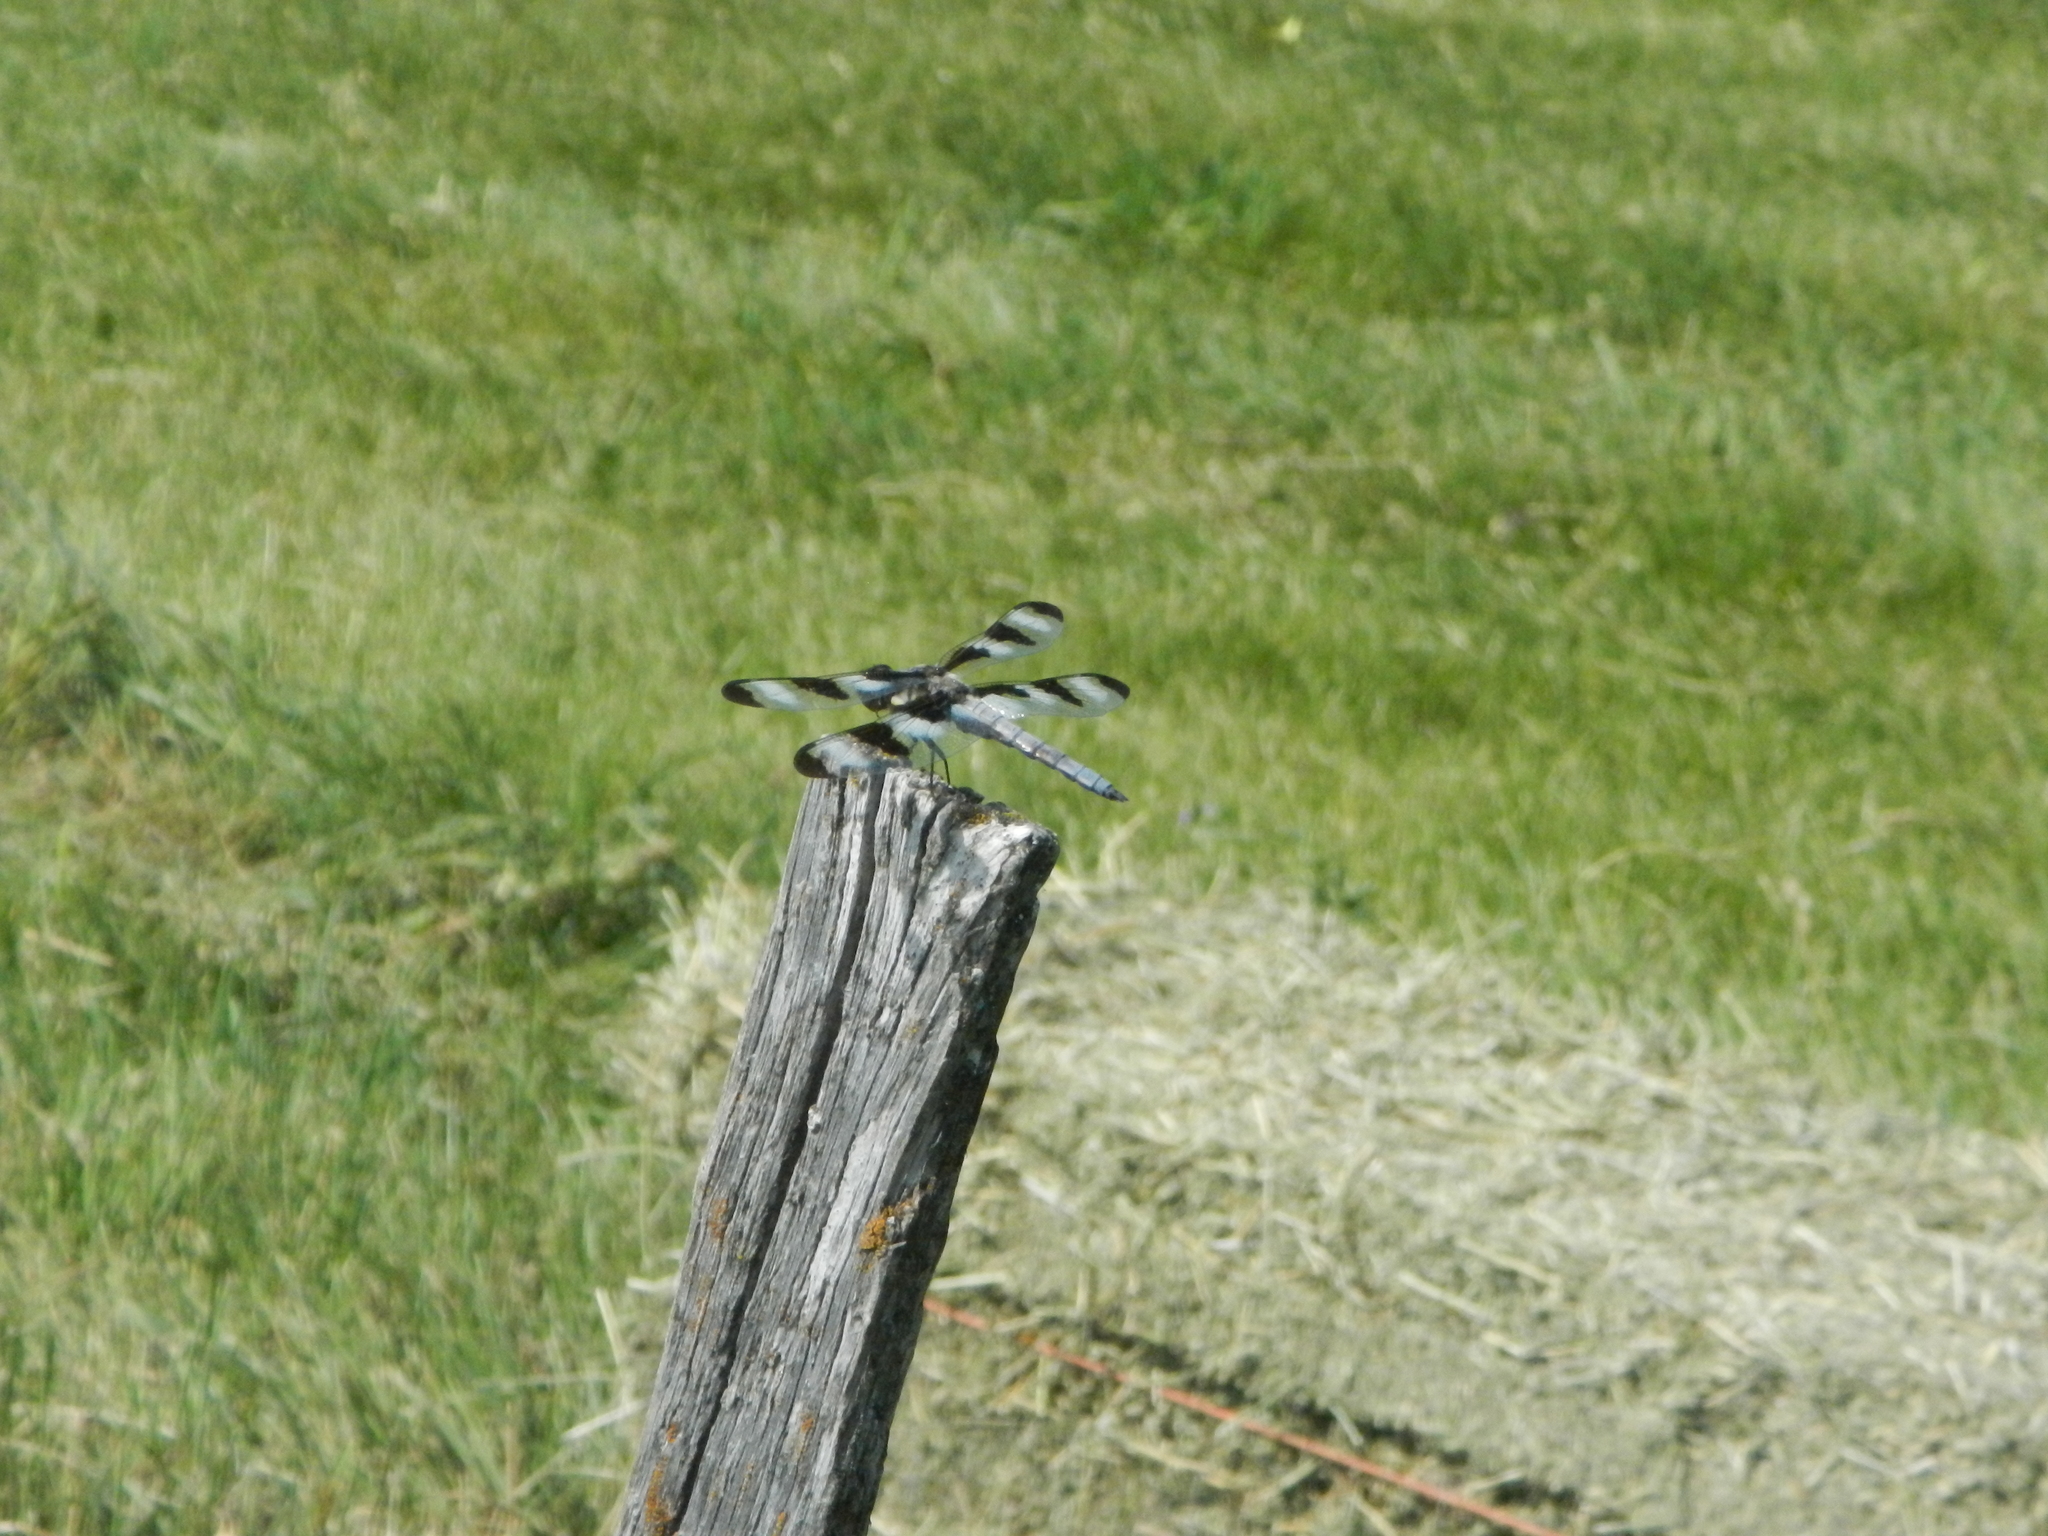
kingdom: Animalia
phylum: Arthropoda
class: Insecta
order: Odonata
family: Libellulidae
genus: Libellula
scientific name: Libellula pulchella
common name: Twelve-spotted skimmer
